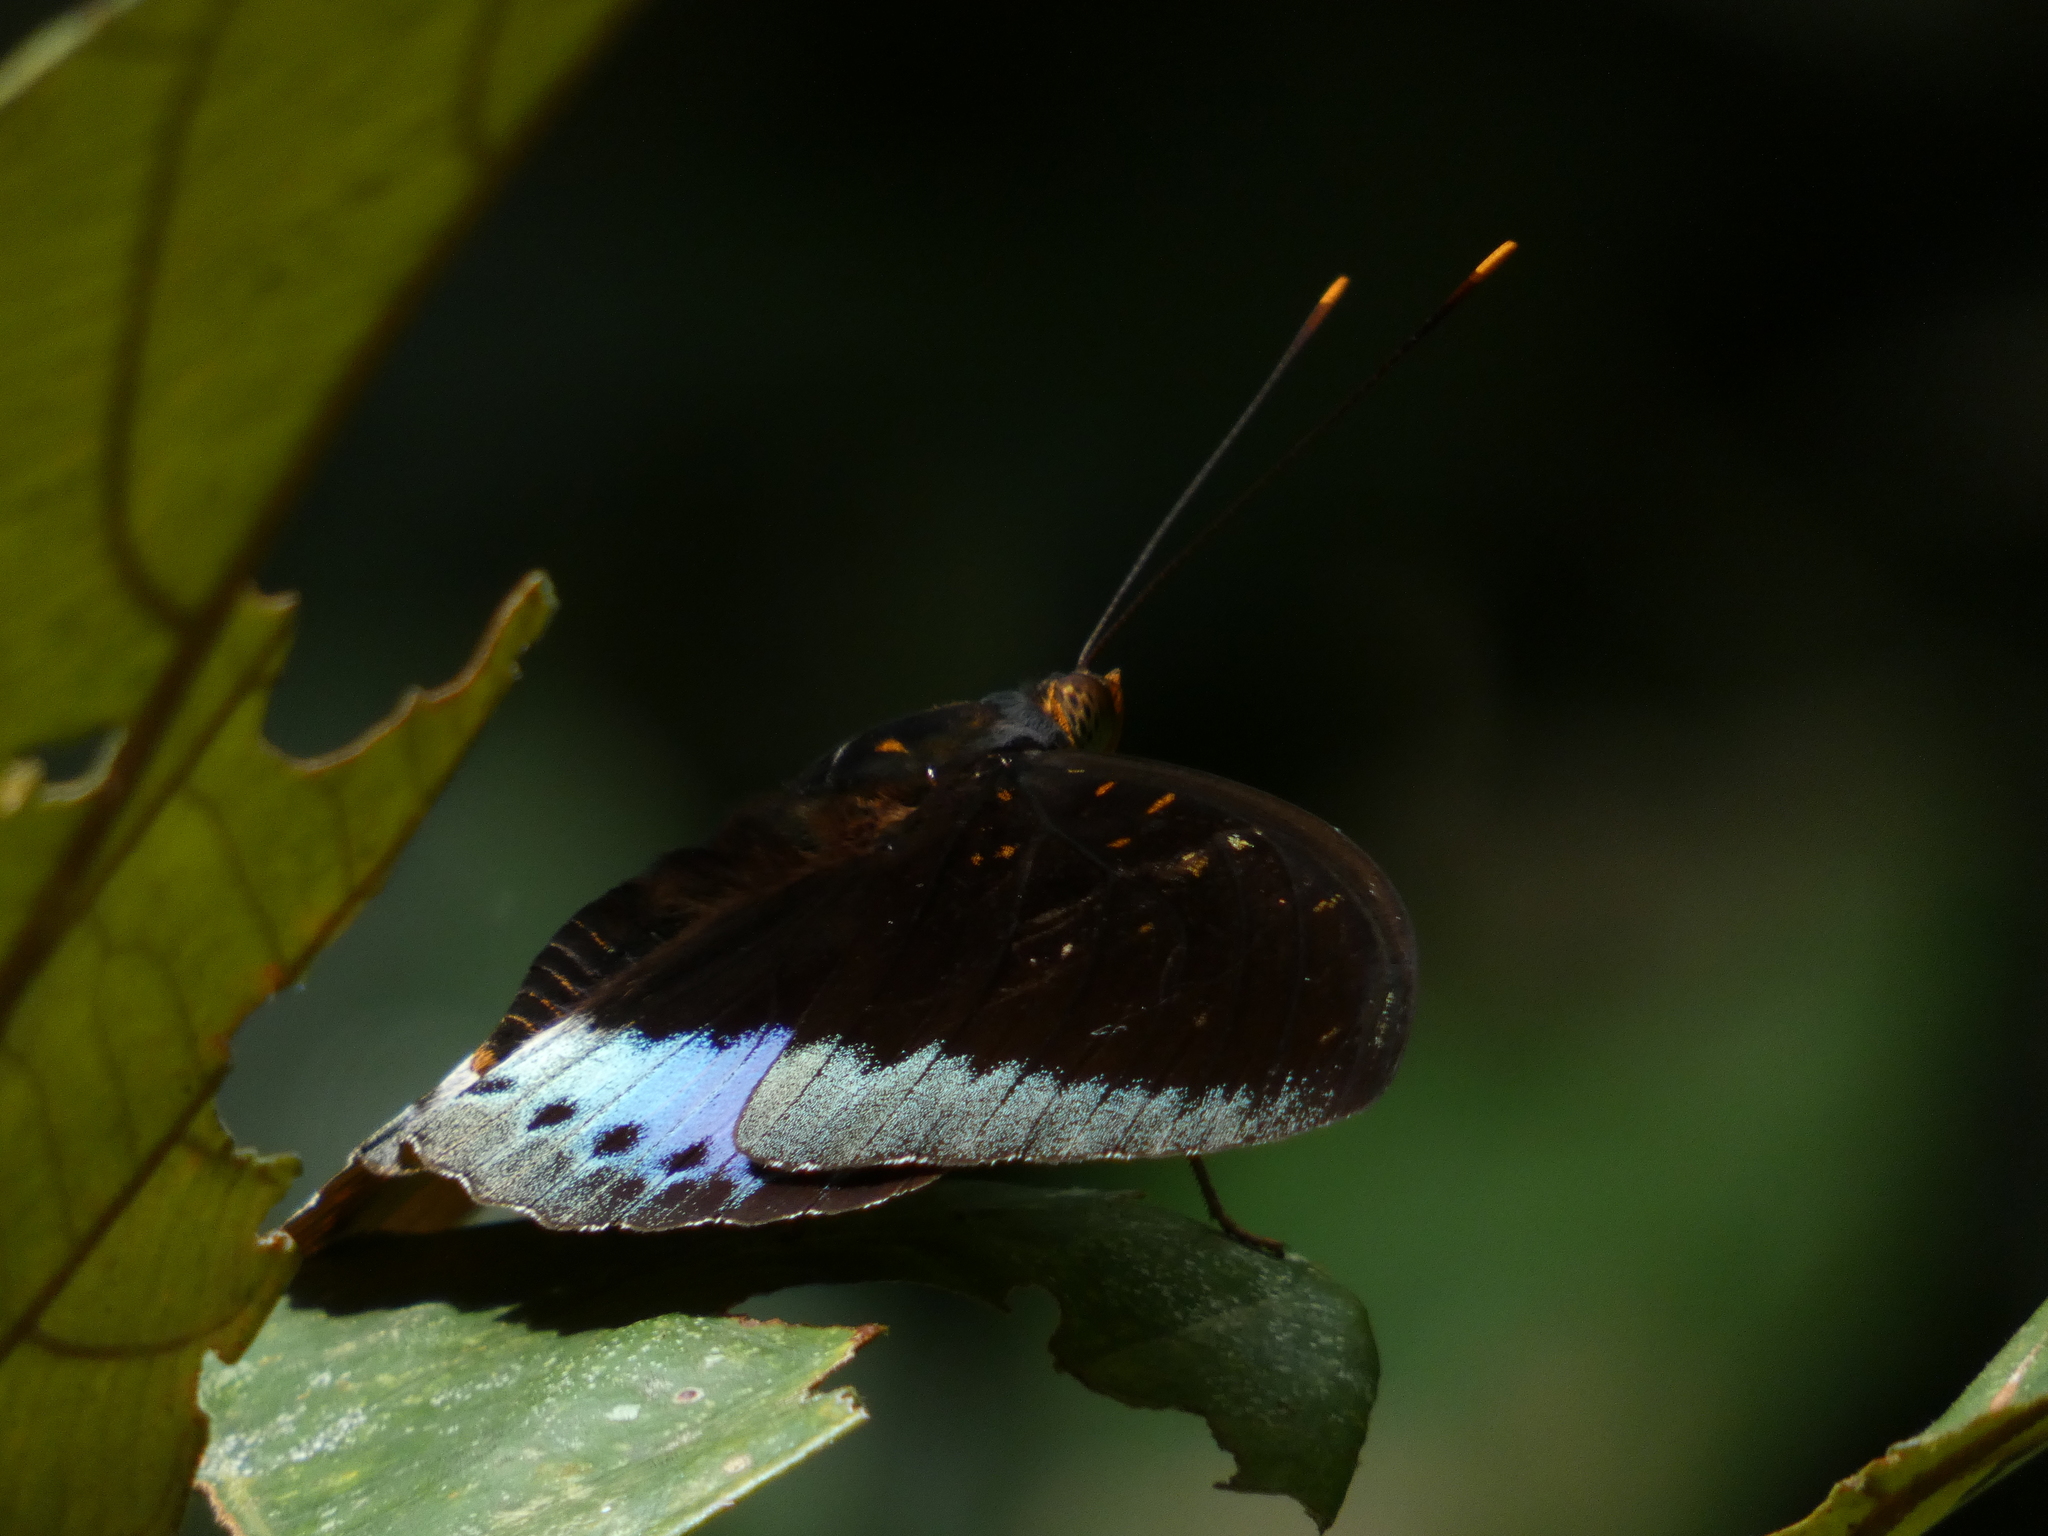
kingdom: Animalia
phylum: Arthropoda
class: Insecta
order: Lepidoptera
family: Nymphalidae
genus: Lexias
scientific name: Lexias pardalis
